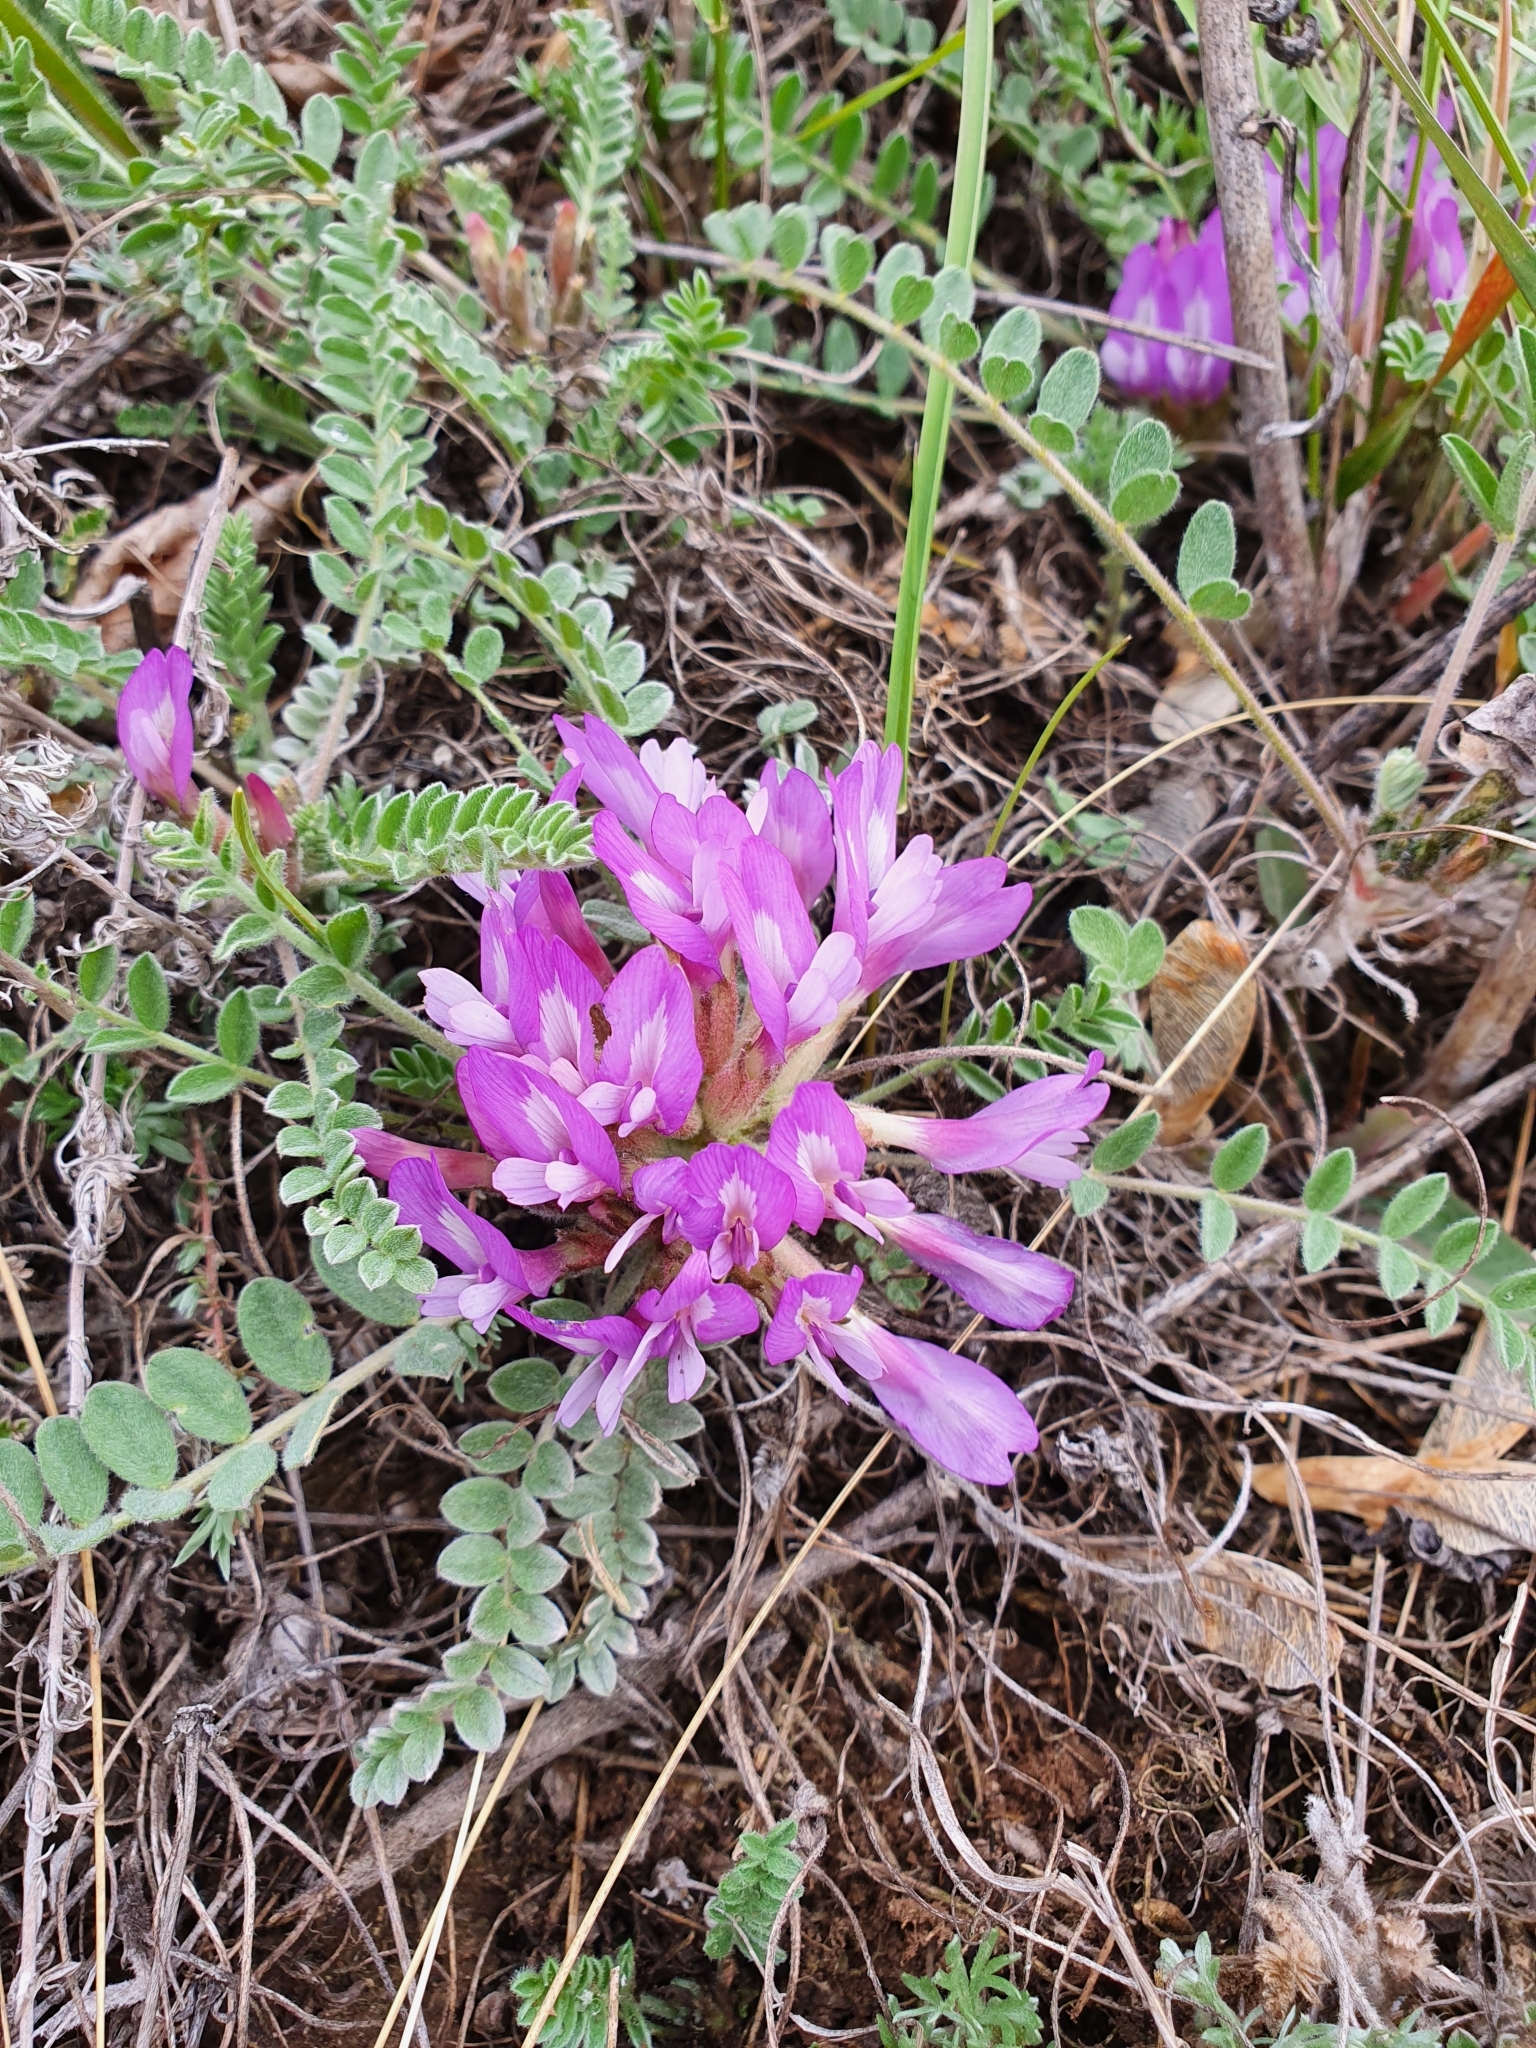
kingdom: Plantae
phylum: Tracheophyta
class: Magnoliopsida
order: Fabales
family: Fabaceae
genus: Astragalus
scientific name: Astragalus testiculatus
